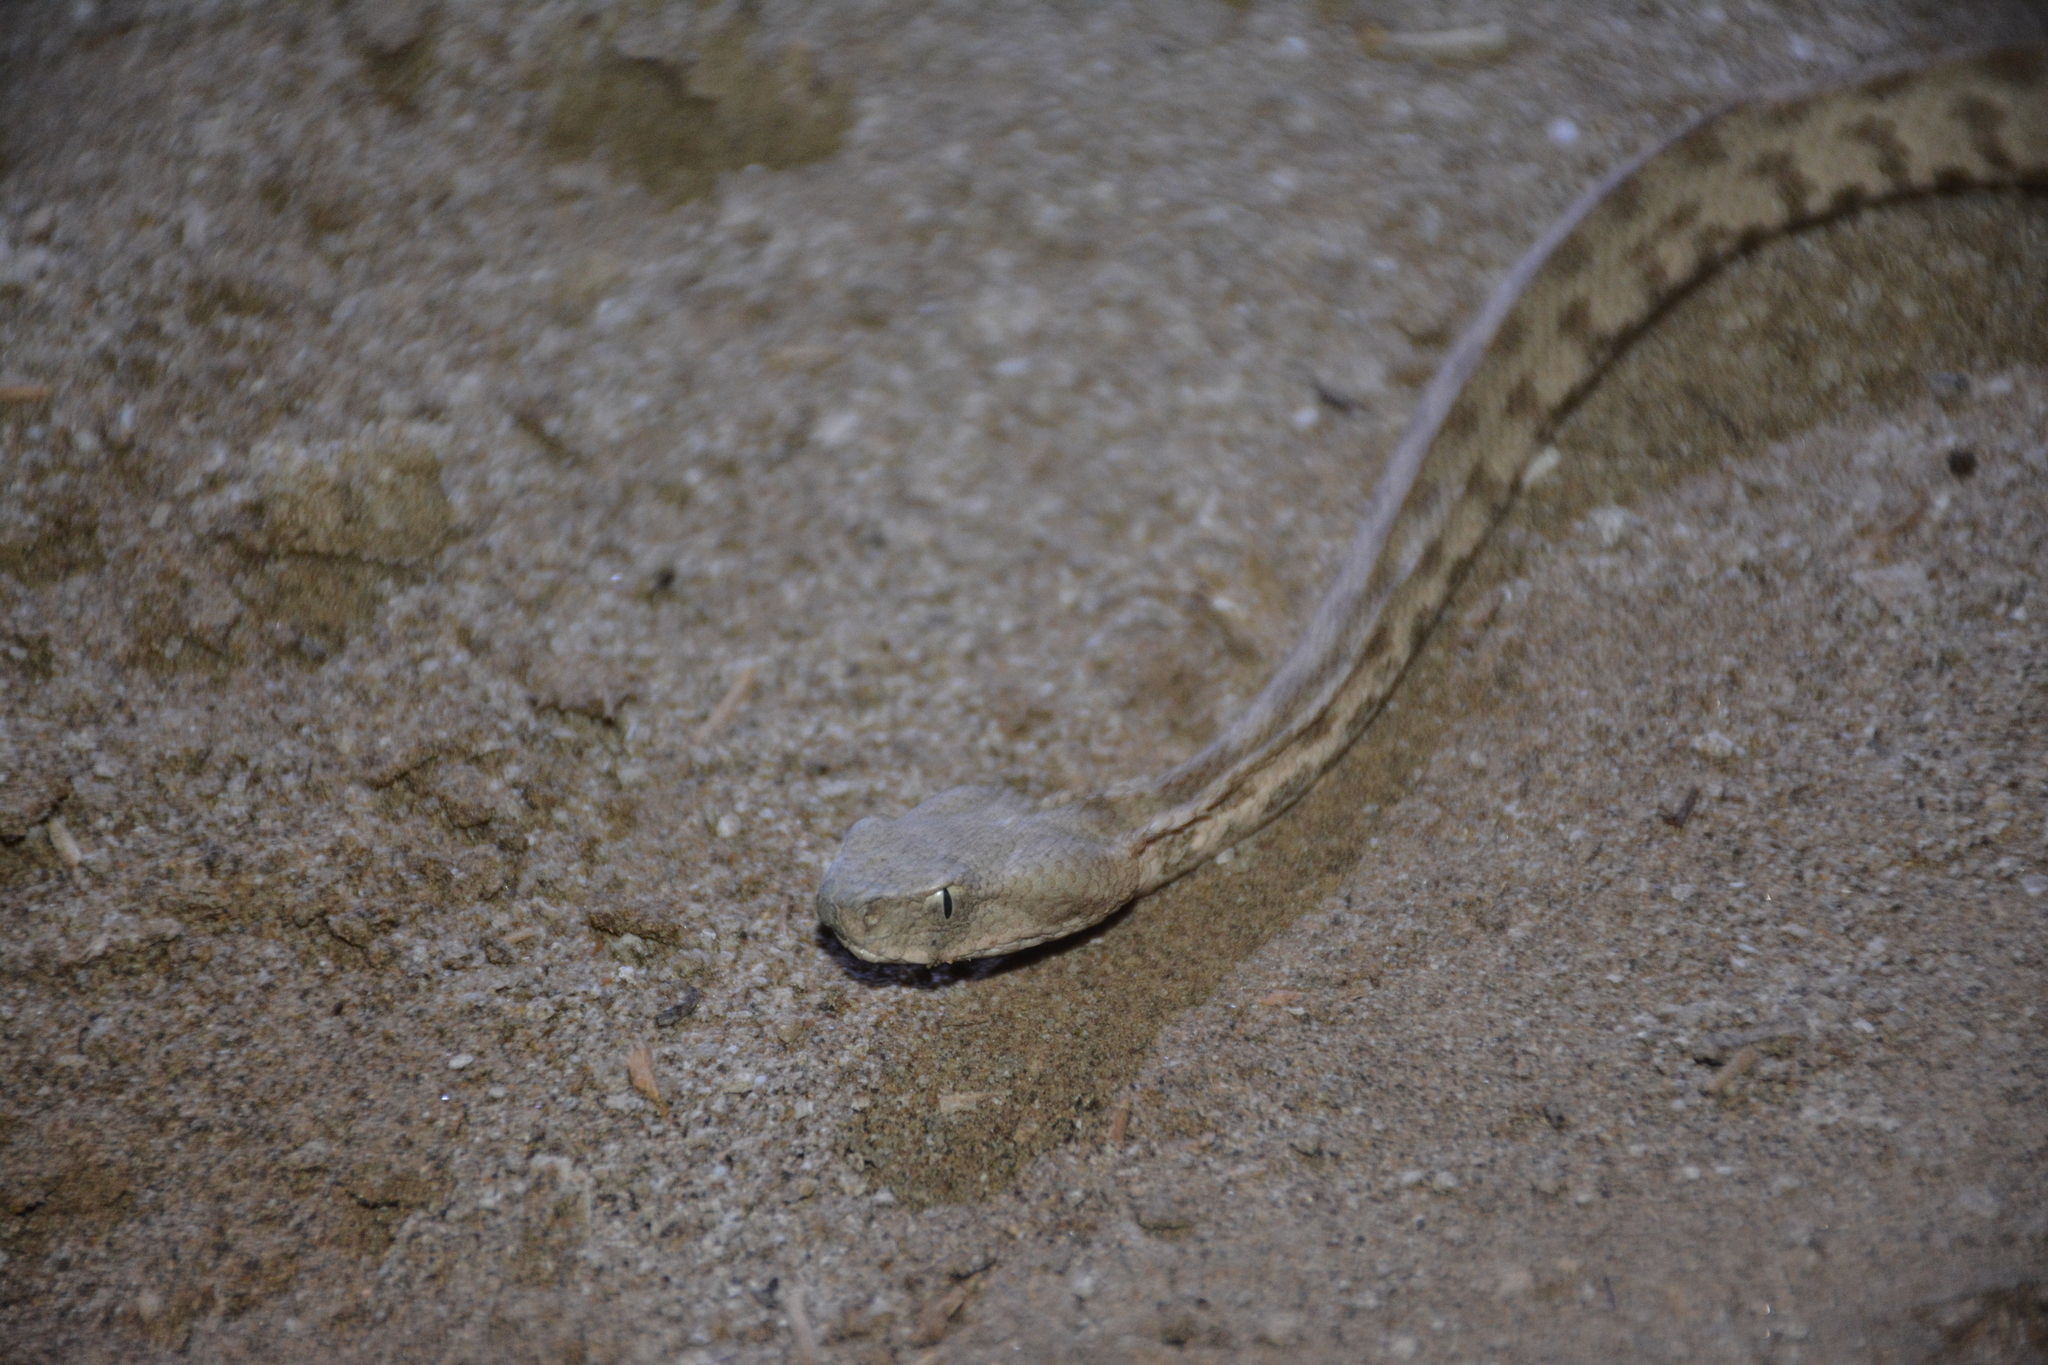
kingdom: Animalia
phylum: Chordata
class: Squamata
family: Viperidae
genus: Macrovipera
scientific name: Macrovipera lebetinus
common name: Levantine viper
